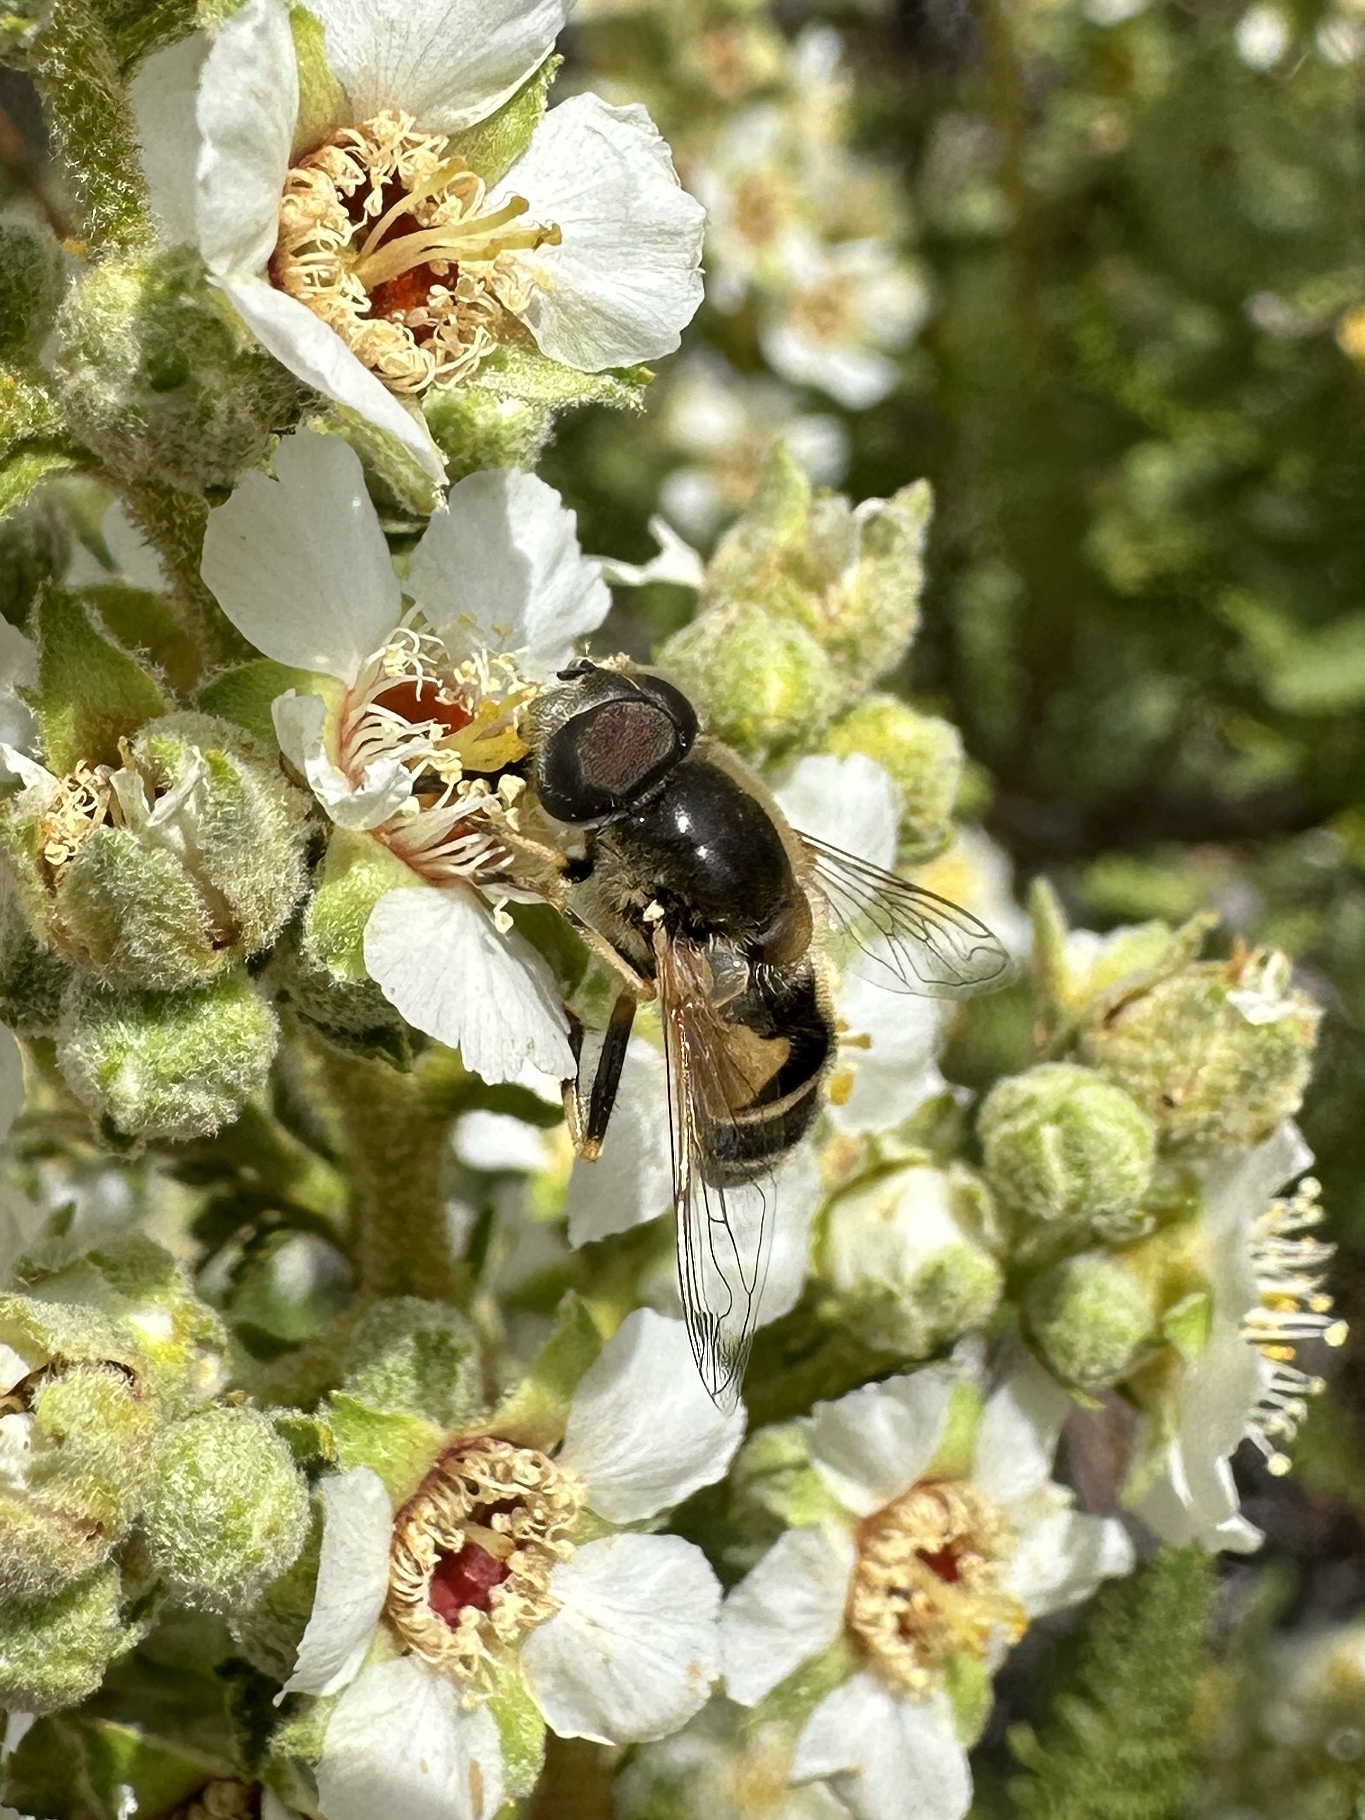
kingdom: Animalia
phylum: Arthropoda
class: Insecta
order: Diptera
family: Syrphidae
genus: Eristalis
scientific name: Eristalis hirta
